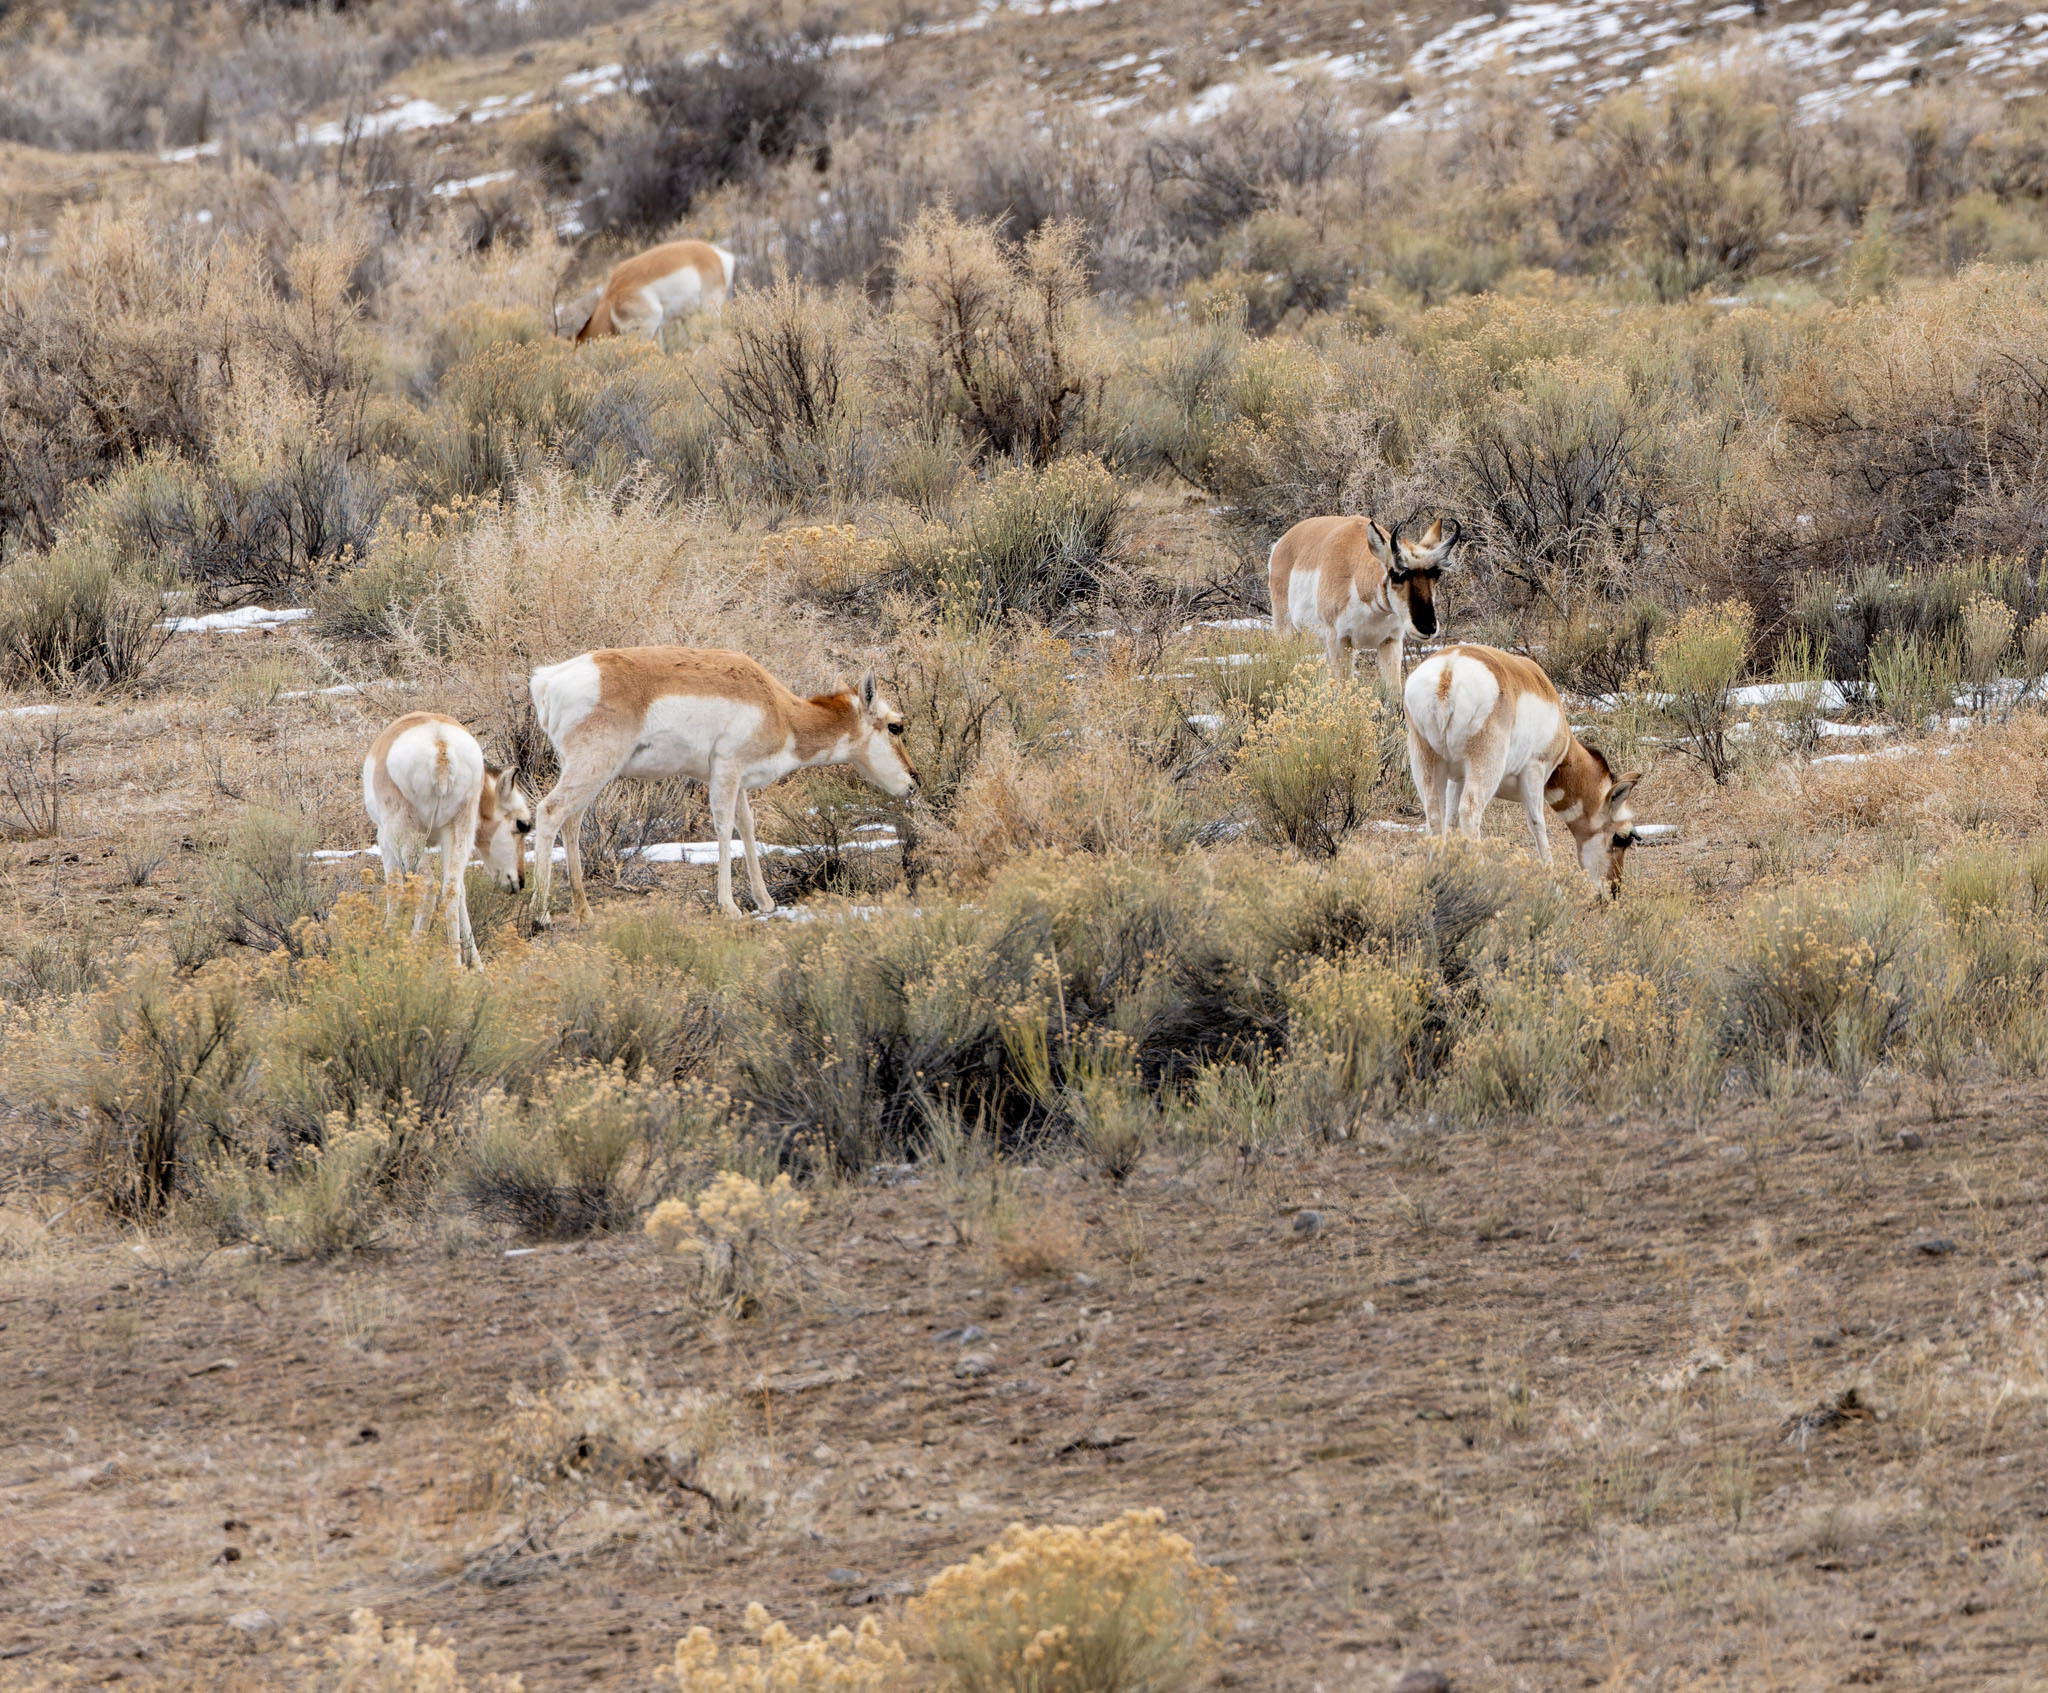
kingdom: Animalia
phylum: Chordata
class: Mammalia
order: Artiodactyla
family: Antilocapridae
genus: Antilocapra
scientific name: Antilocapra americana
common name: Pronghorn
